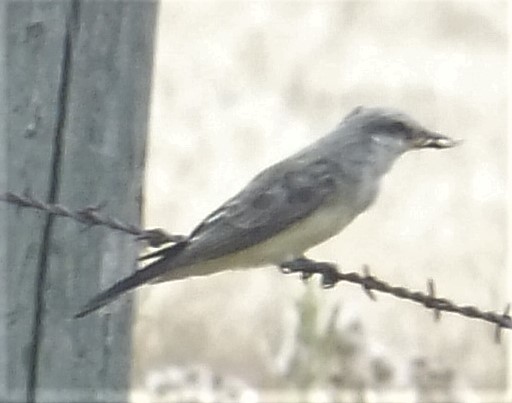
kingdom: Animalia
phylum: Chordata
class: Aves
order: Passeriformes
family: Tyrannidae
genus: Tyrannus
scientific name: Tyrannus verticalis
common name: Western kingbird
